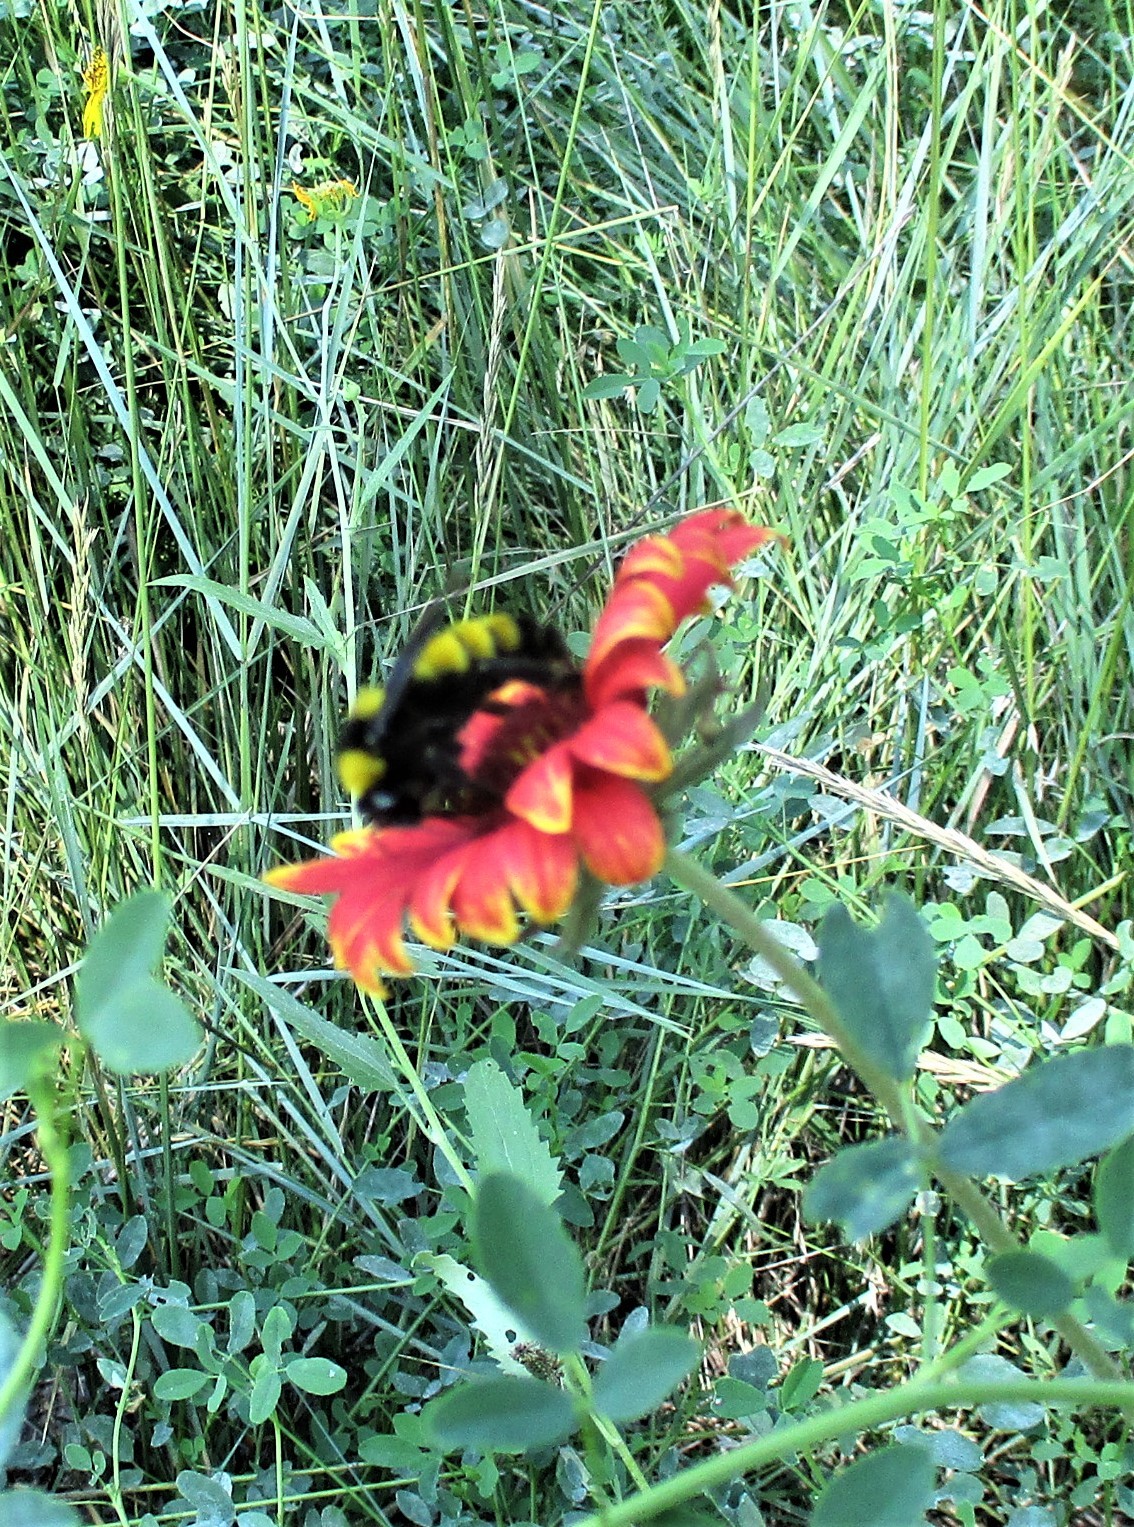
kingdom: Animalia
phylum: Arthropoda
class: Insecta
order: Hymenoptera
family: Apidae
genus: Bombus
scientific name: Bombus sonorus
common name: Sonoran bumble bee
